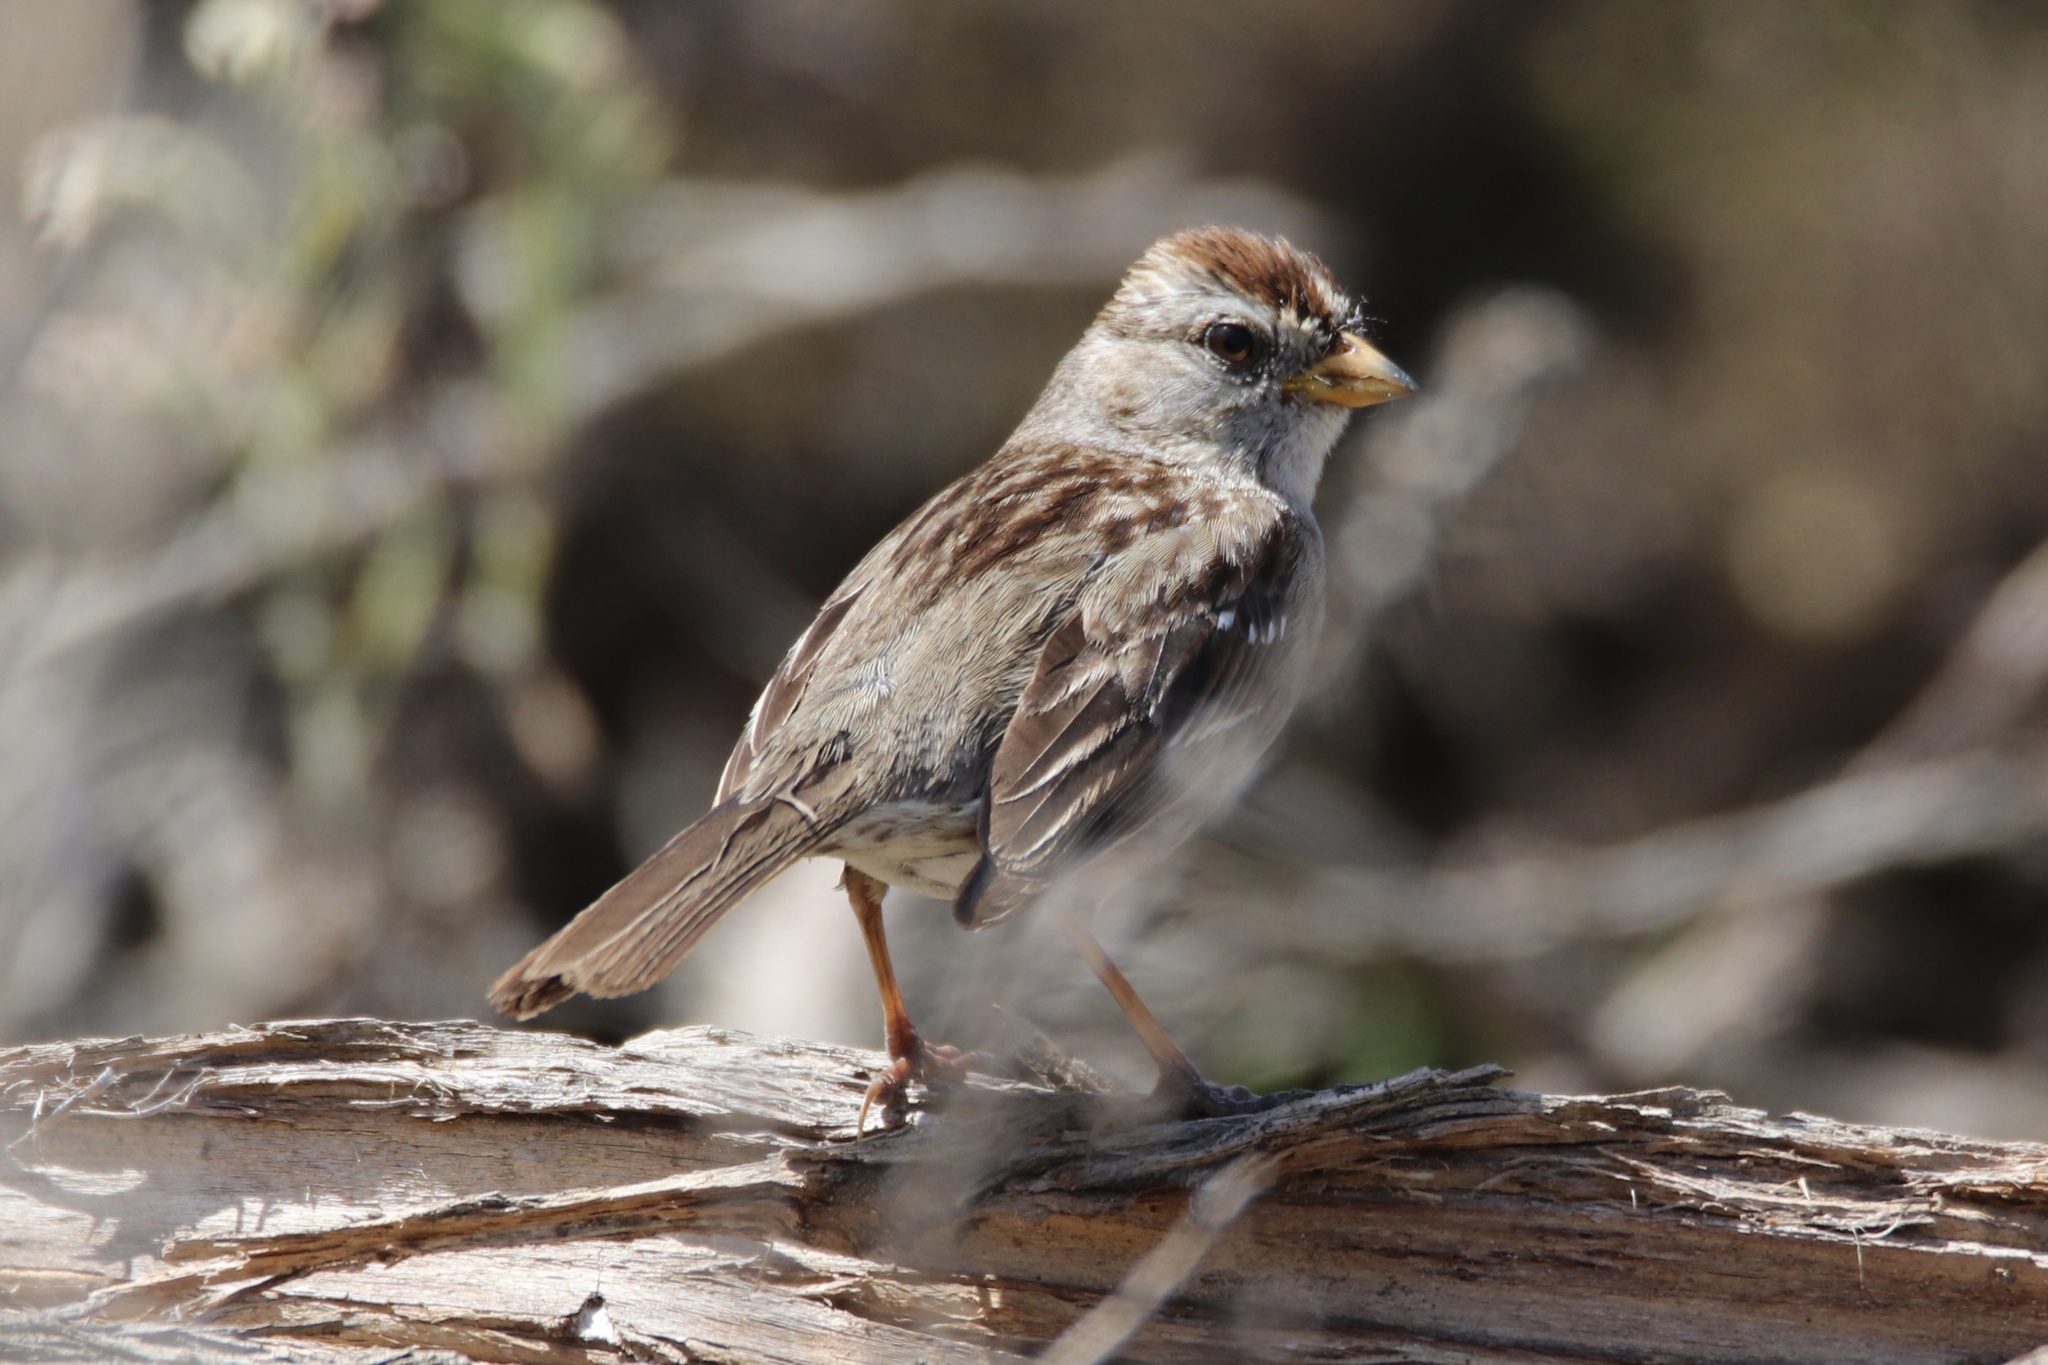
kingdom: Animalia
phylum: Chordata
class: Aves
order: Passeriformes
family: Passerellidae
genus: Zonotrichia
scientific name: Zonotrichia leucophrys
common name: White-crowned sparrow
